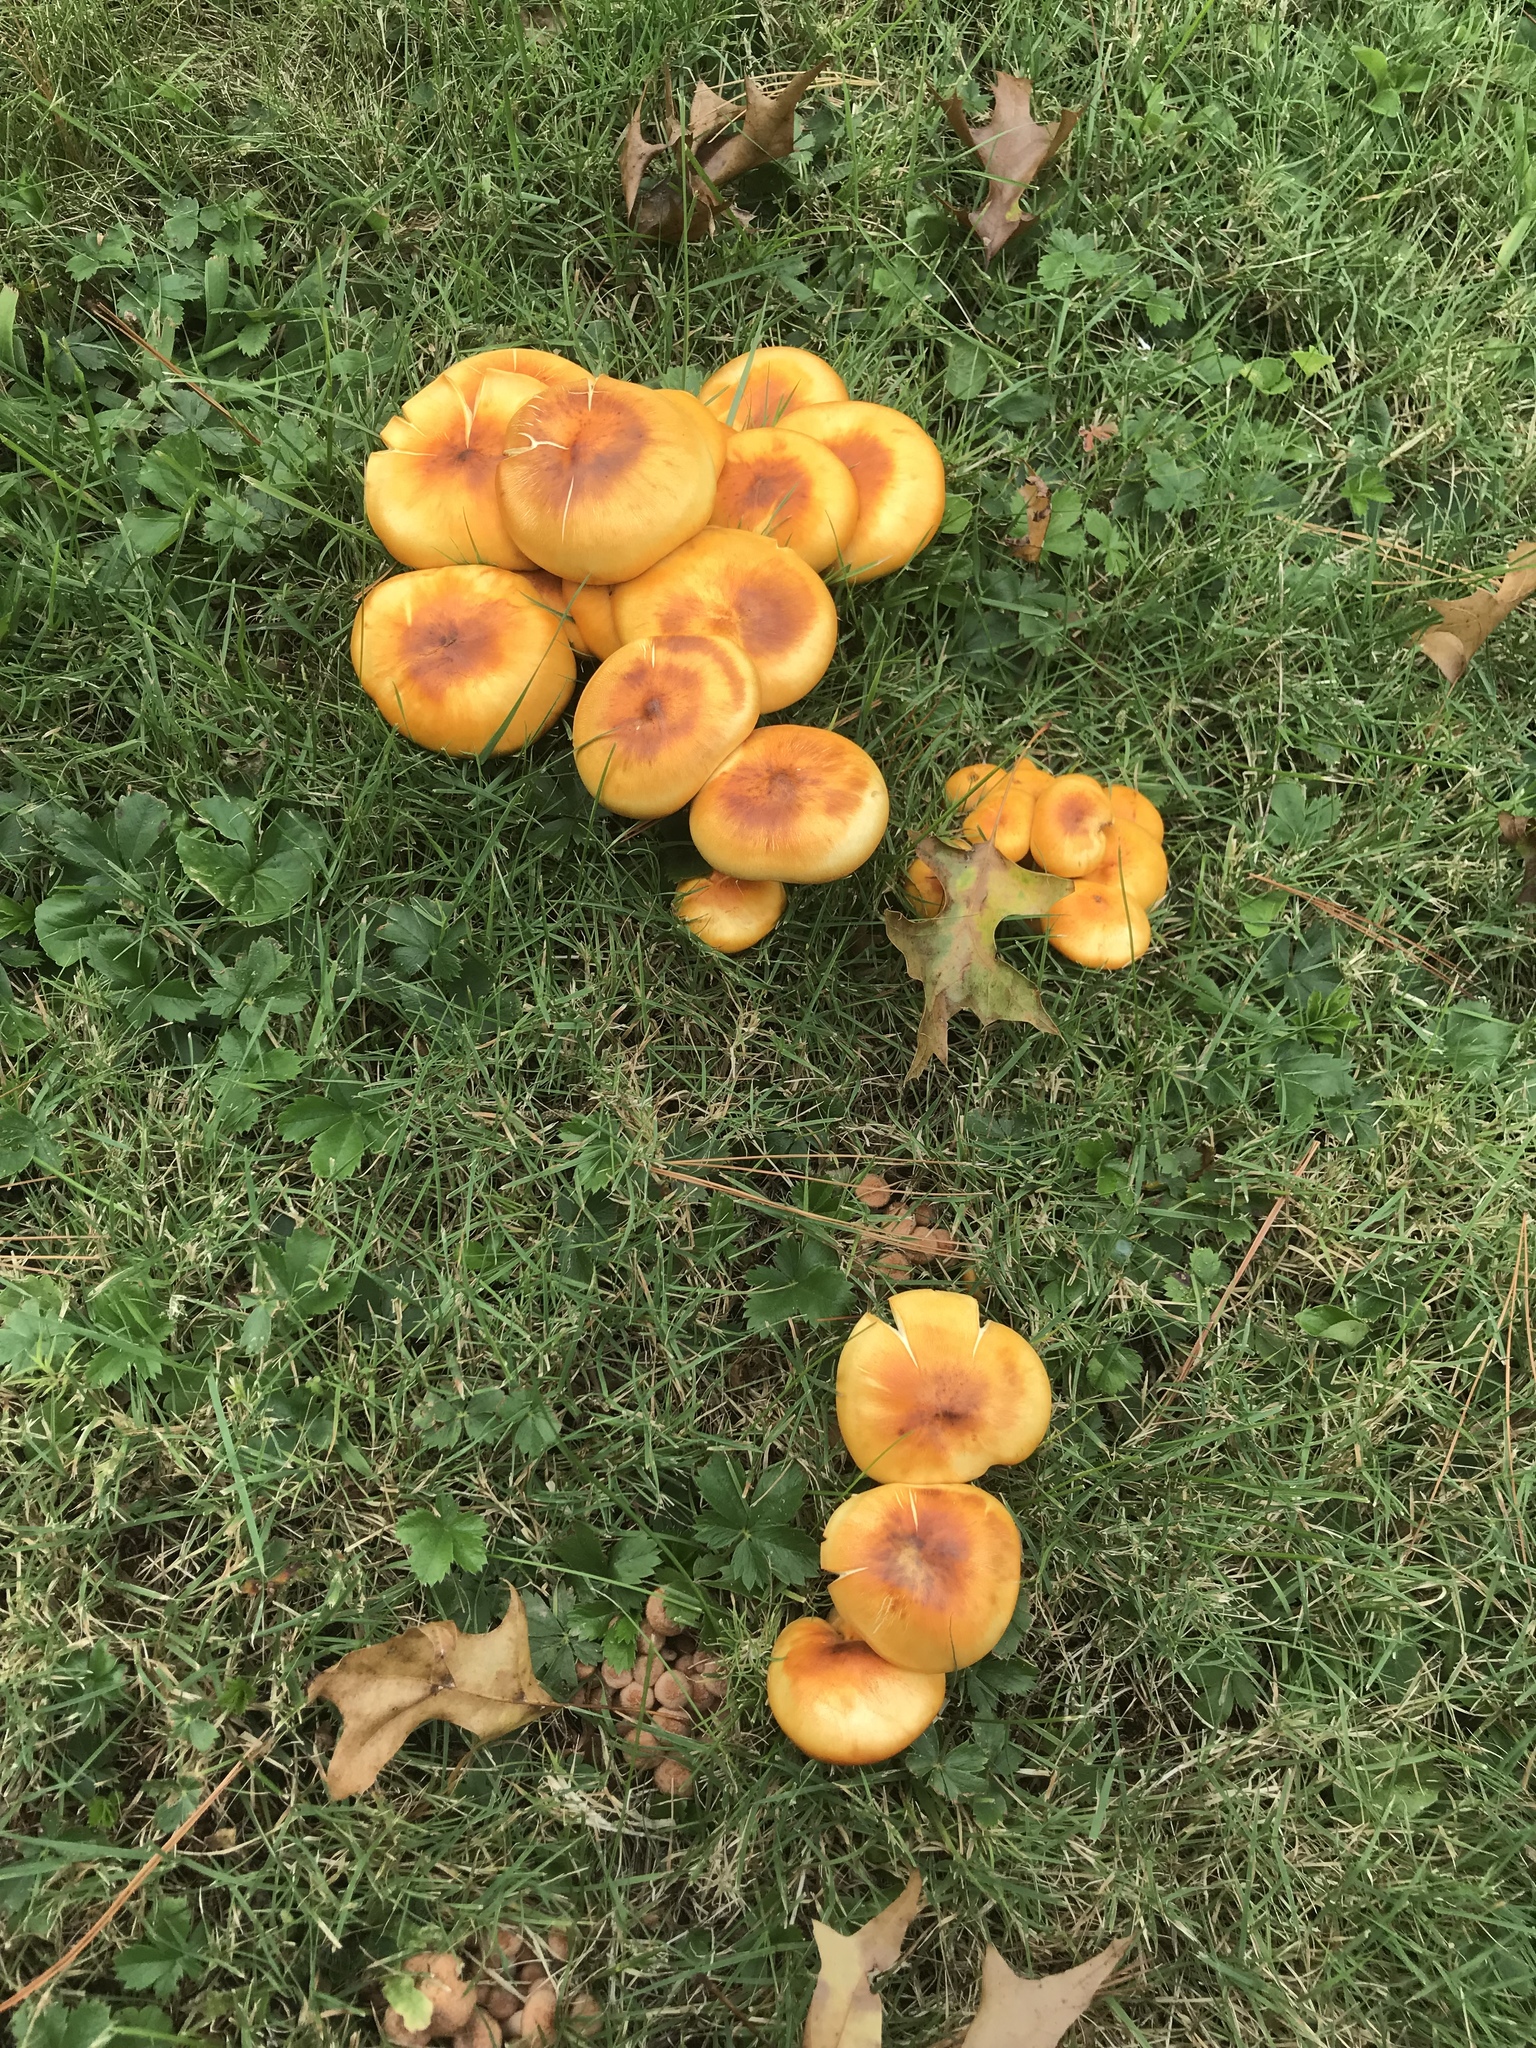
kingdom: Fungi
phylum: Basidiomycota
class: Agaricomycetes
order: Agaricales
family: Omphalotaceae
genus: Omphalotus
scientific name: Omphalotus illudens
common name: Jack o lantern
